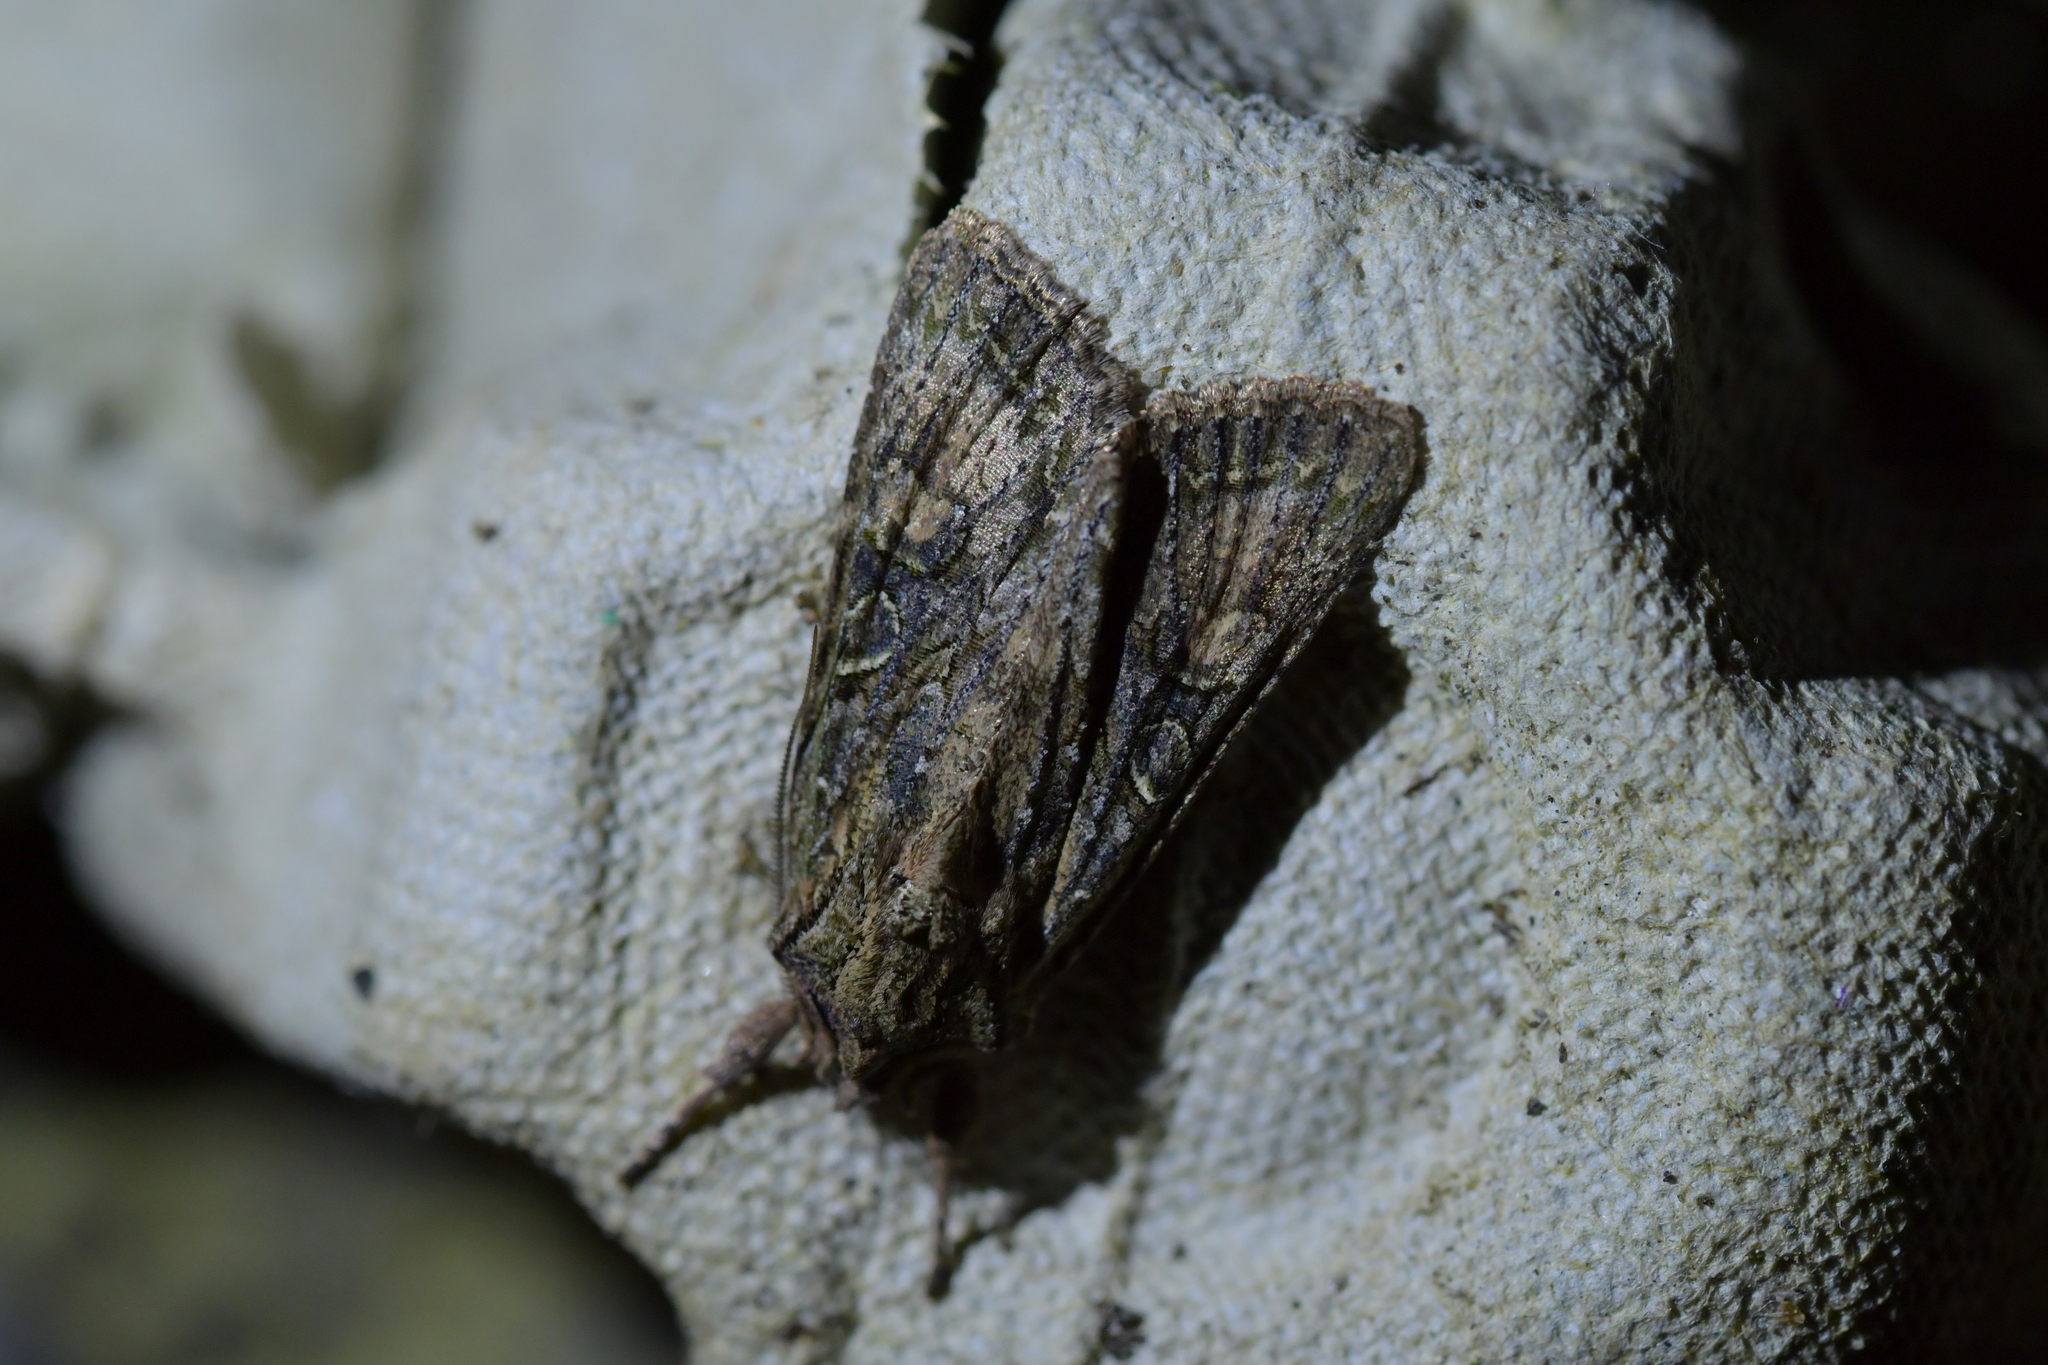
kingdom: Animalia
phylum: Arthropoda
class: Insecta
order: Lepidoptera
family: Noctuidae
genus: Ichneutica
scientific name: Ichneutica mutans
